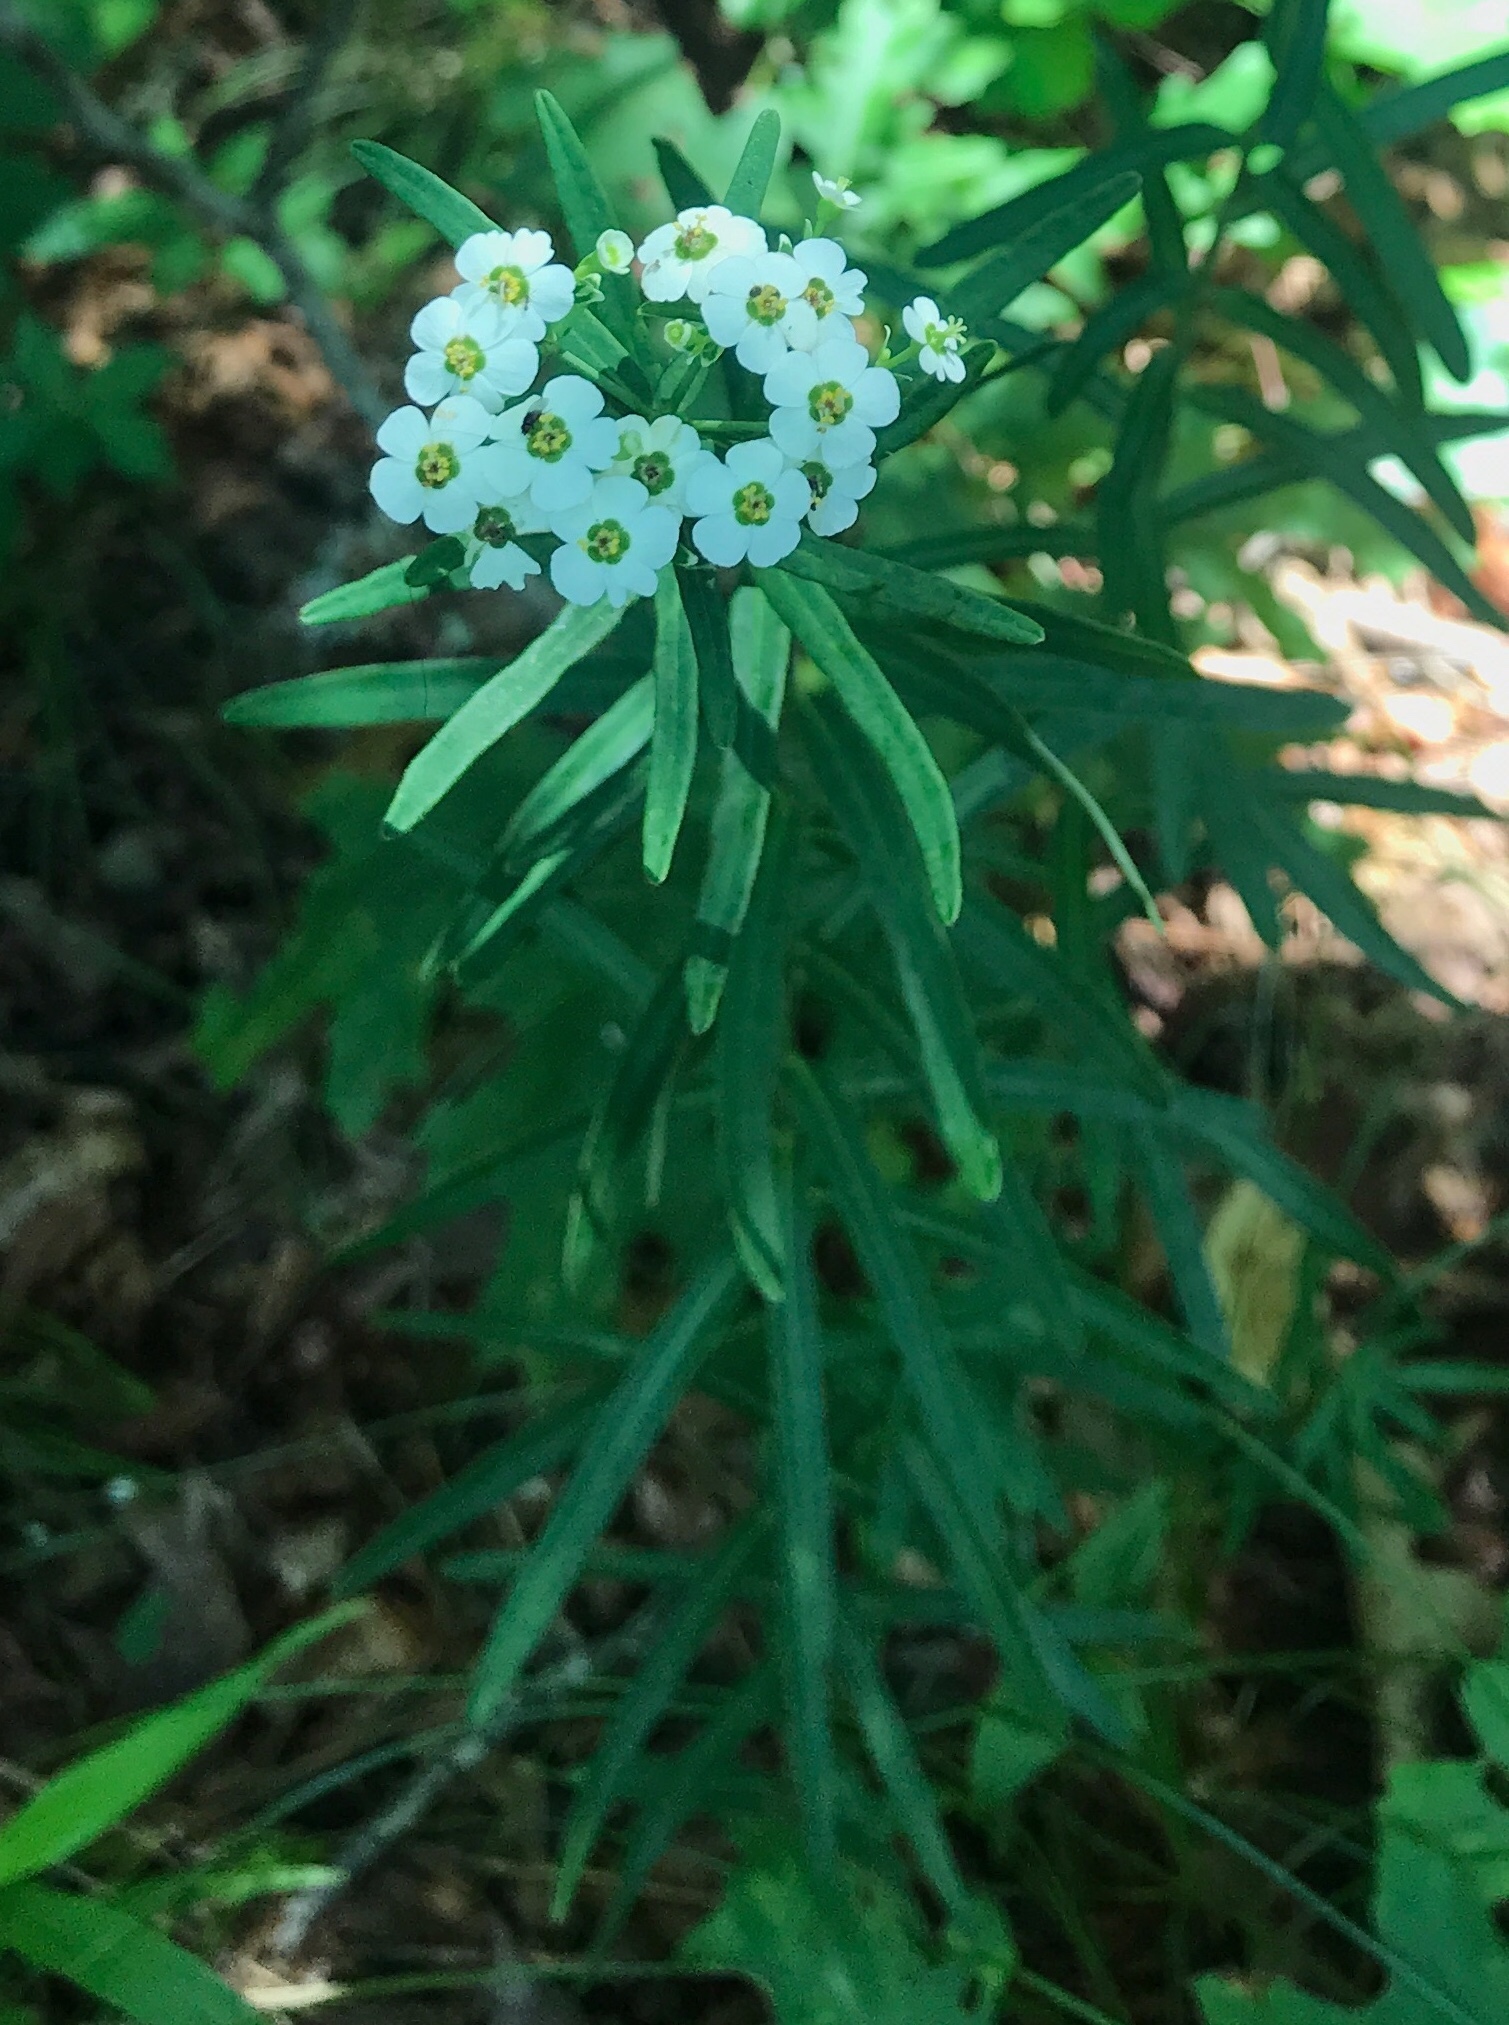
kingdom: Plantae
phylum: Tracheophyta
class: Magnoliopsida
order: Malpighiales
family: Euphorbiaceae
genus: Euphorbia
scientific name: Euphorbia corollata
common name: Flowering spurge
